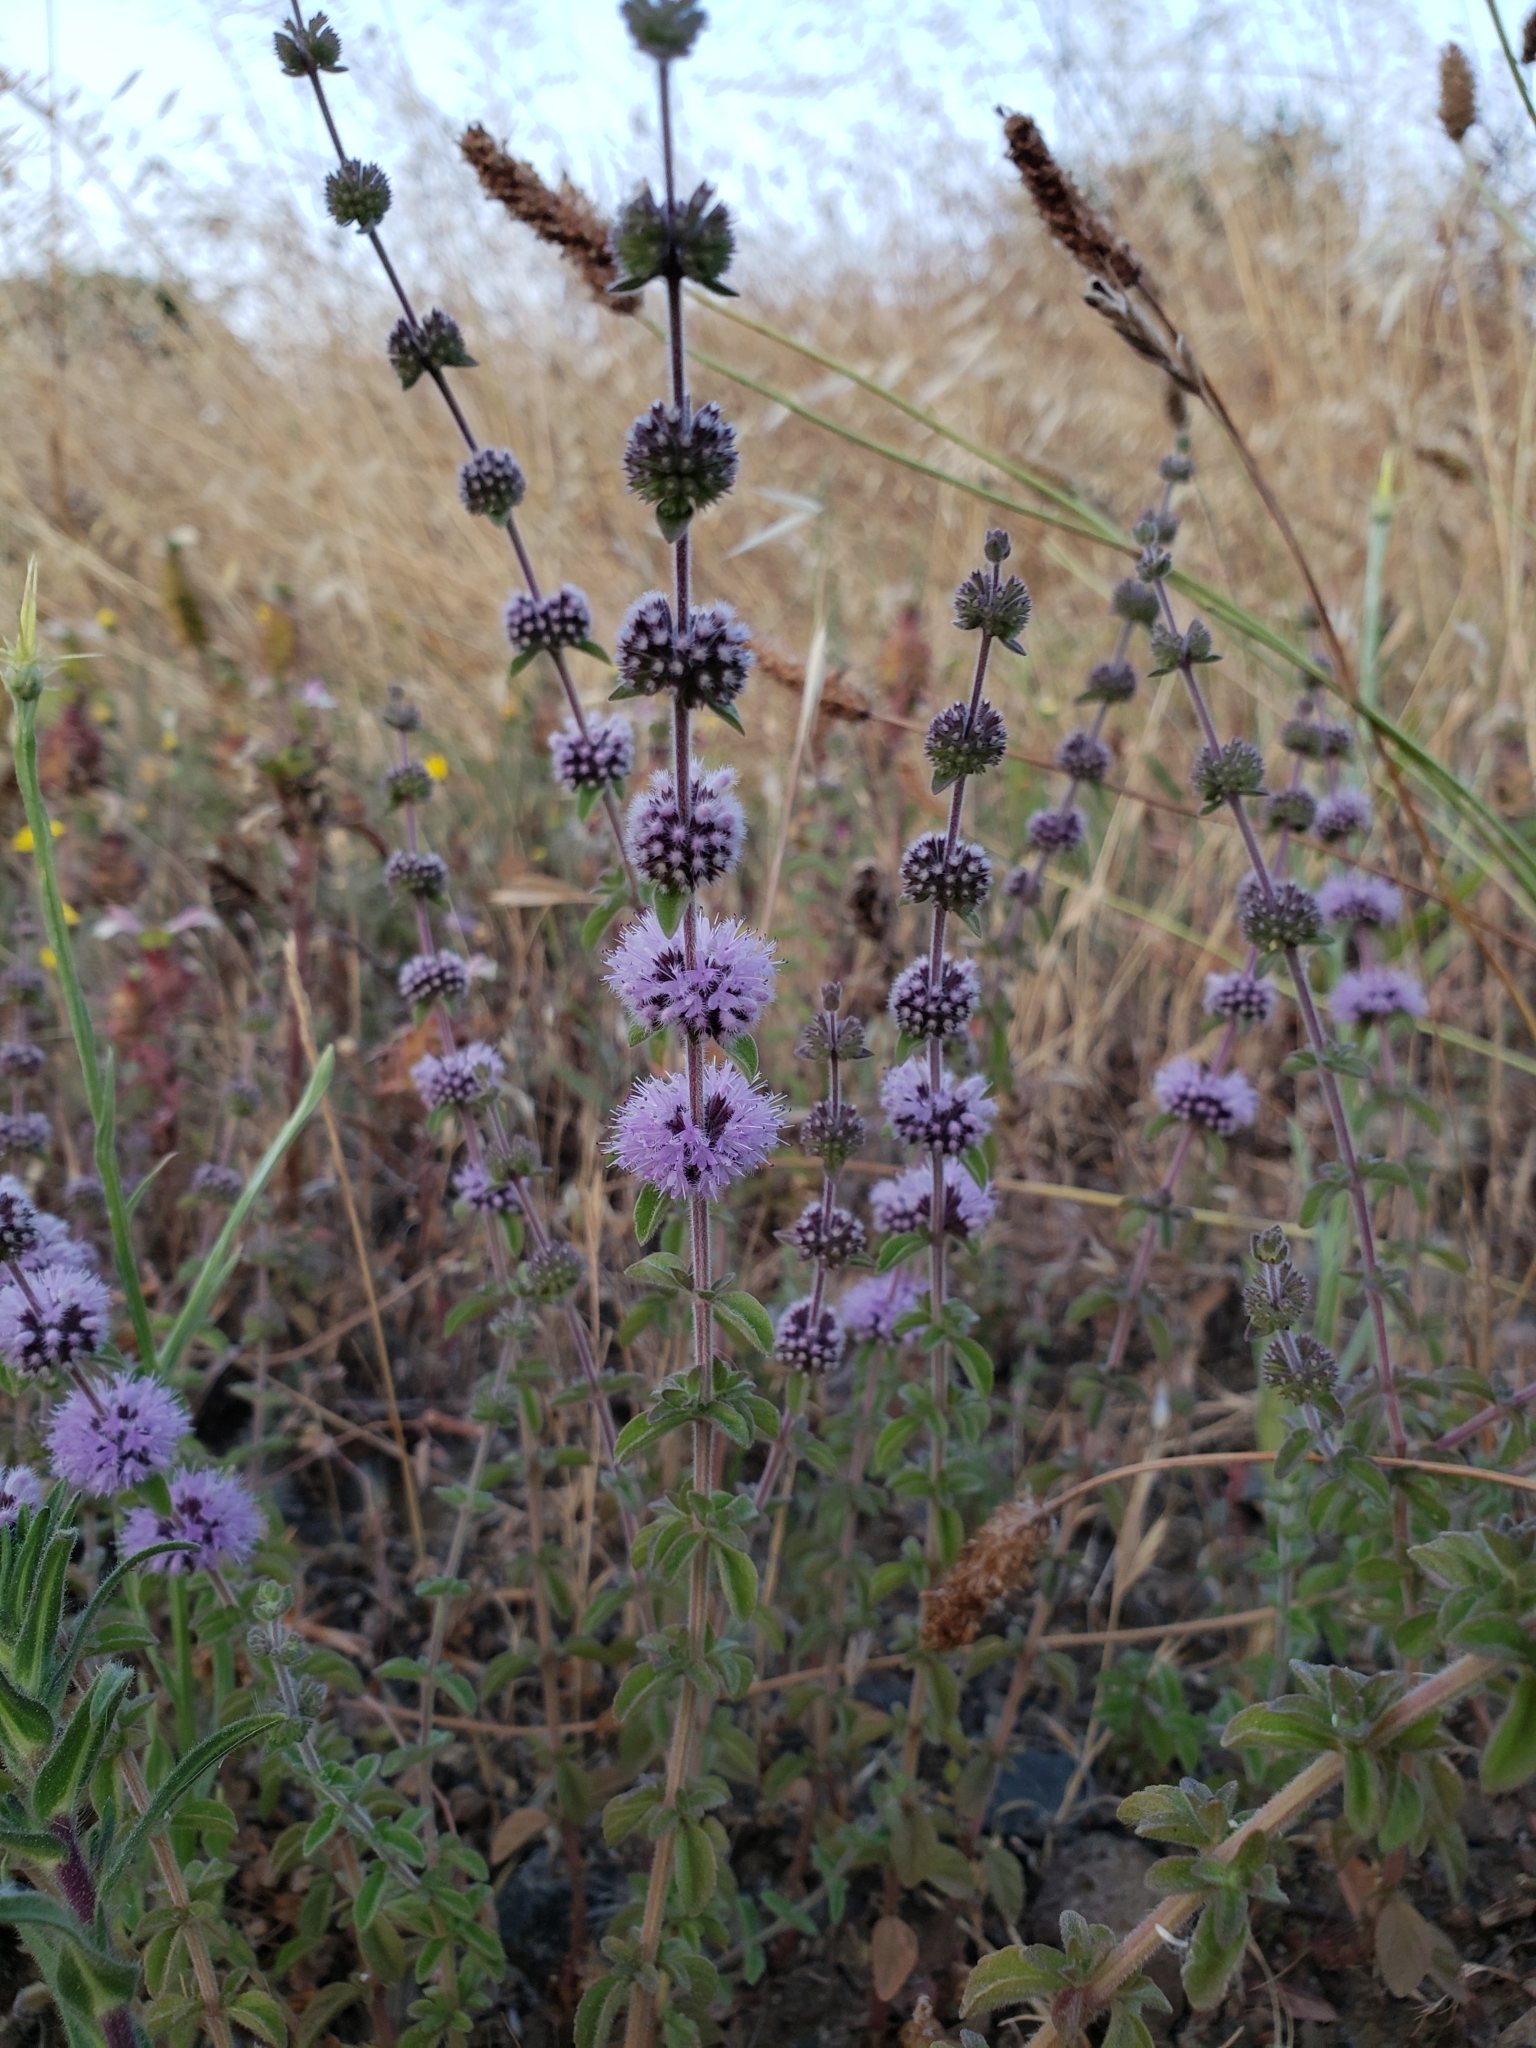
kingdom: Plantae
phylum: Tracheophyta
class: Magnoliopsida
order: Lamiales
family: Lamiaceae
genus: Mentha
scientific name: Mentha pulegium
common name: Pennyroyal
